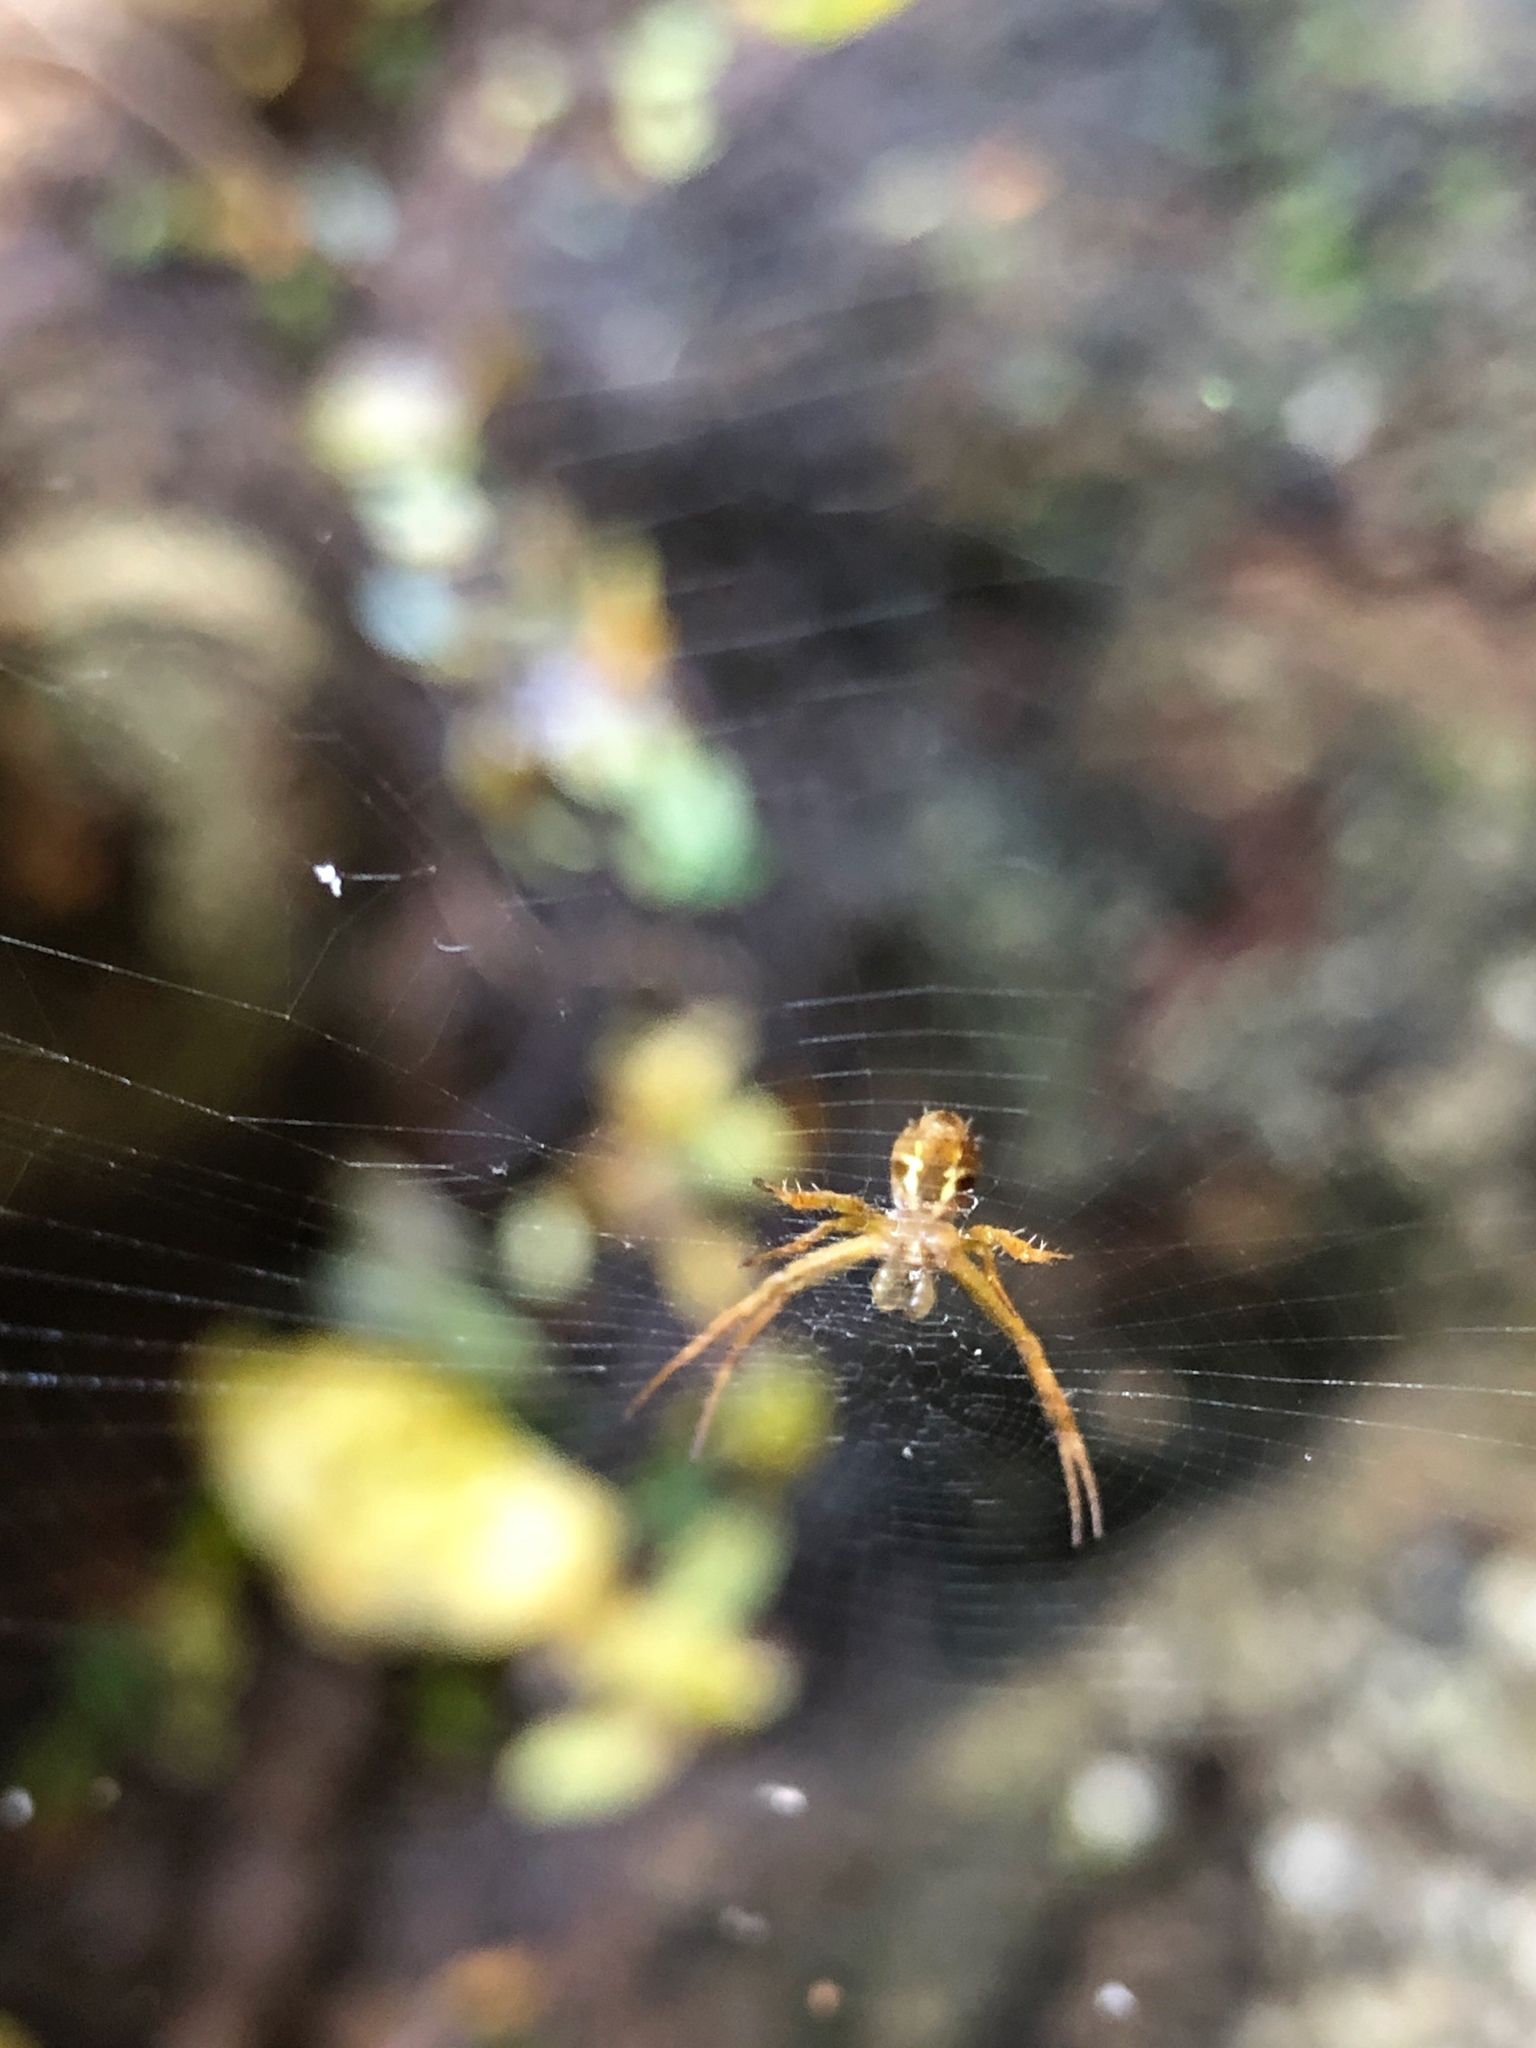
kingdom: Animalia
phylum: Arthropoda
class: Arachnida
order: Araneae
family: Araneidae
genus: Argiope
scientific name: Argiope appensa
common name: Garden spider
